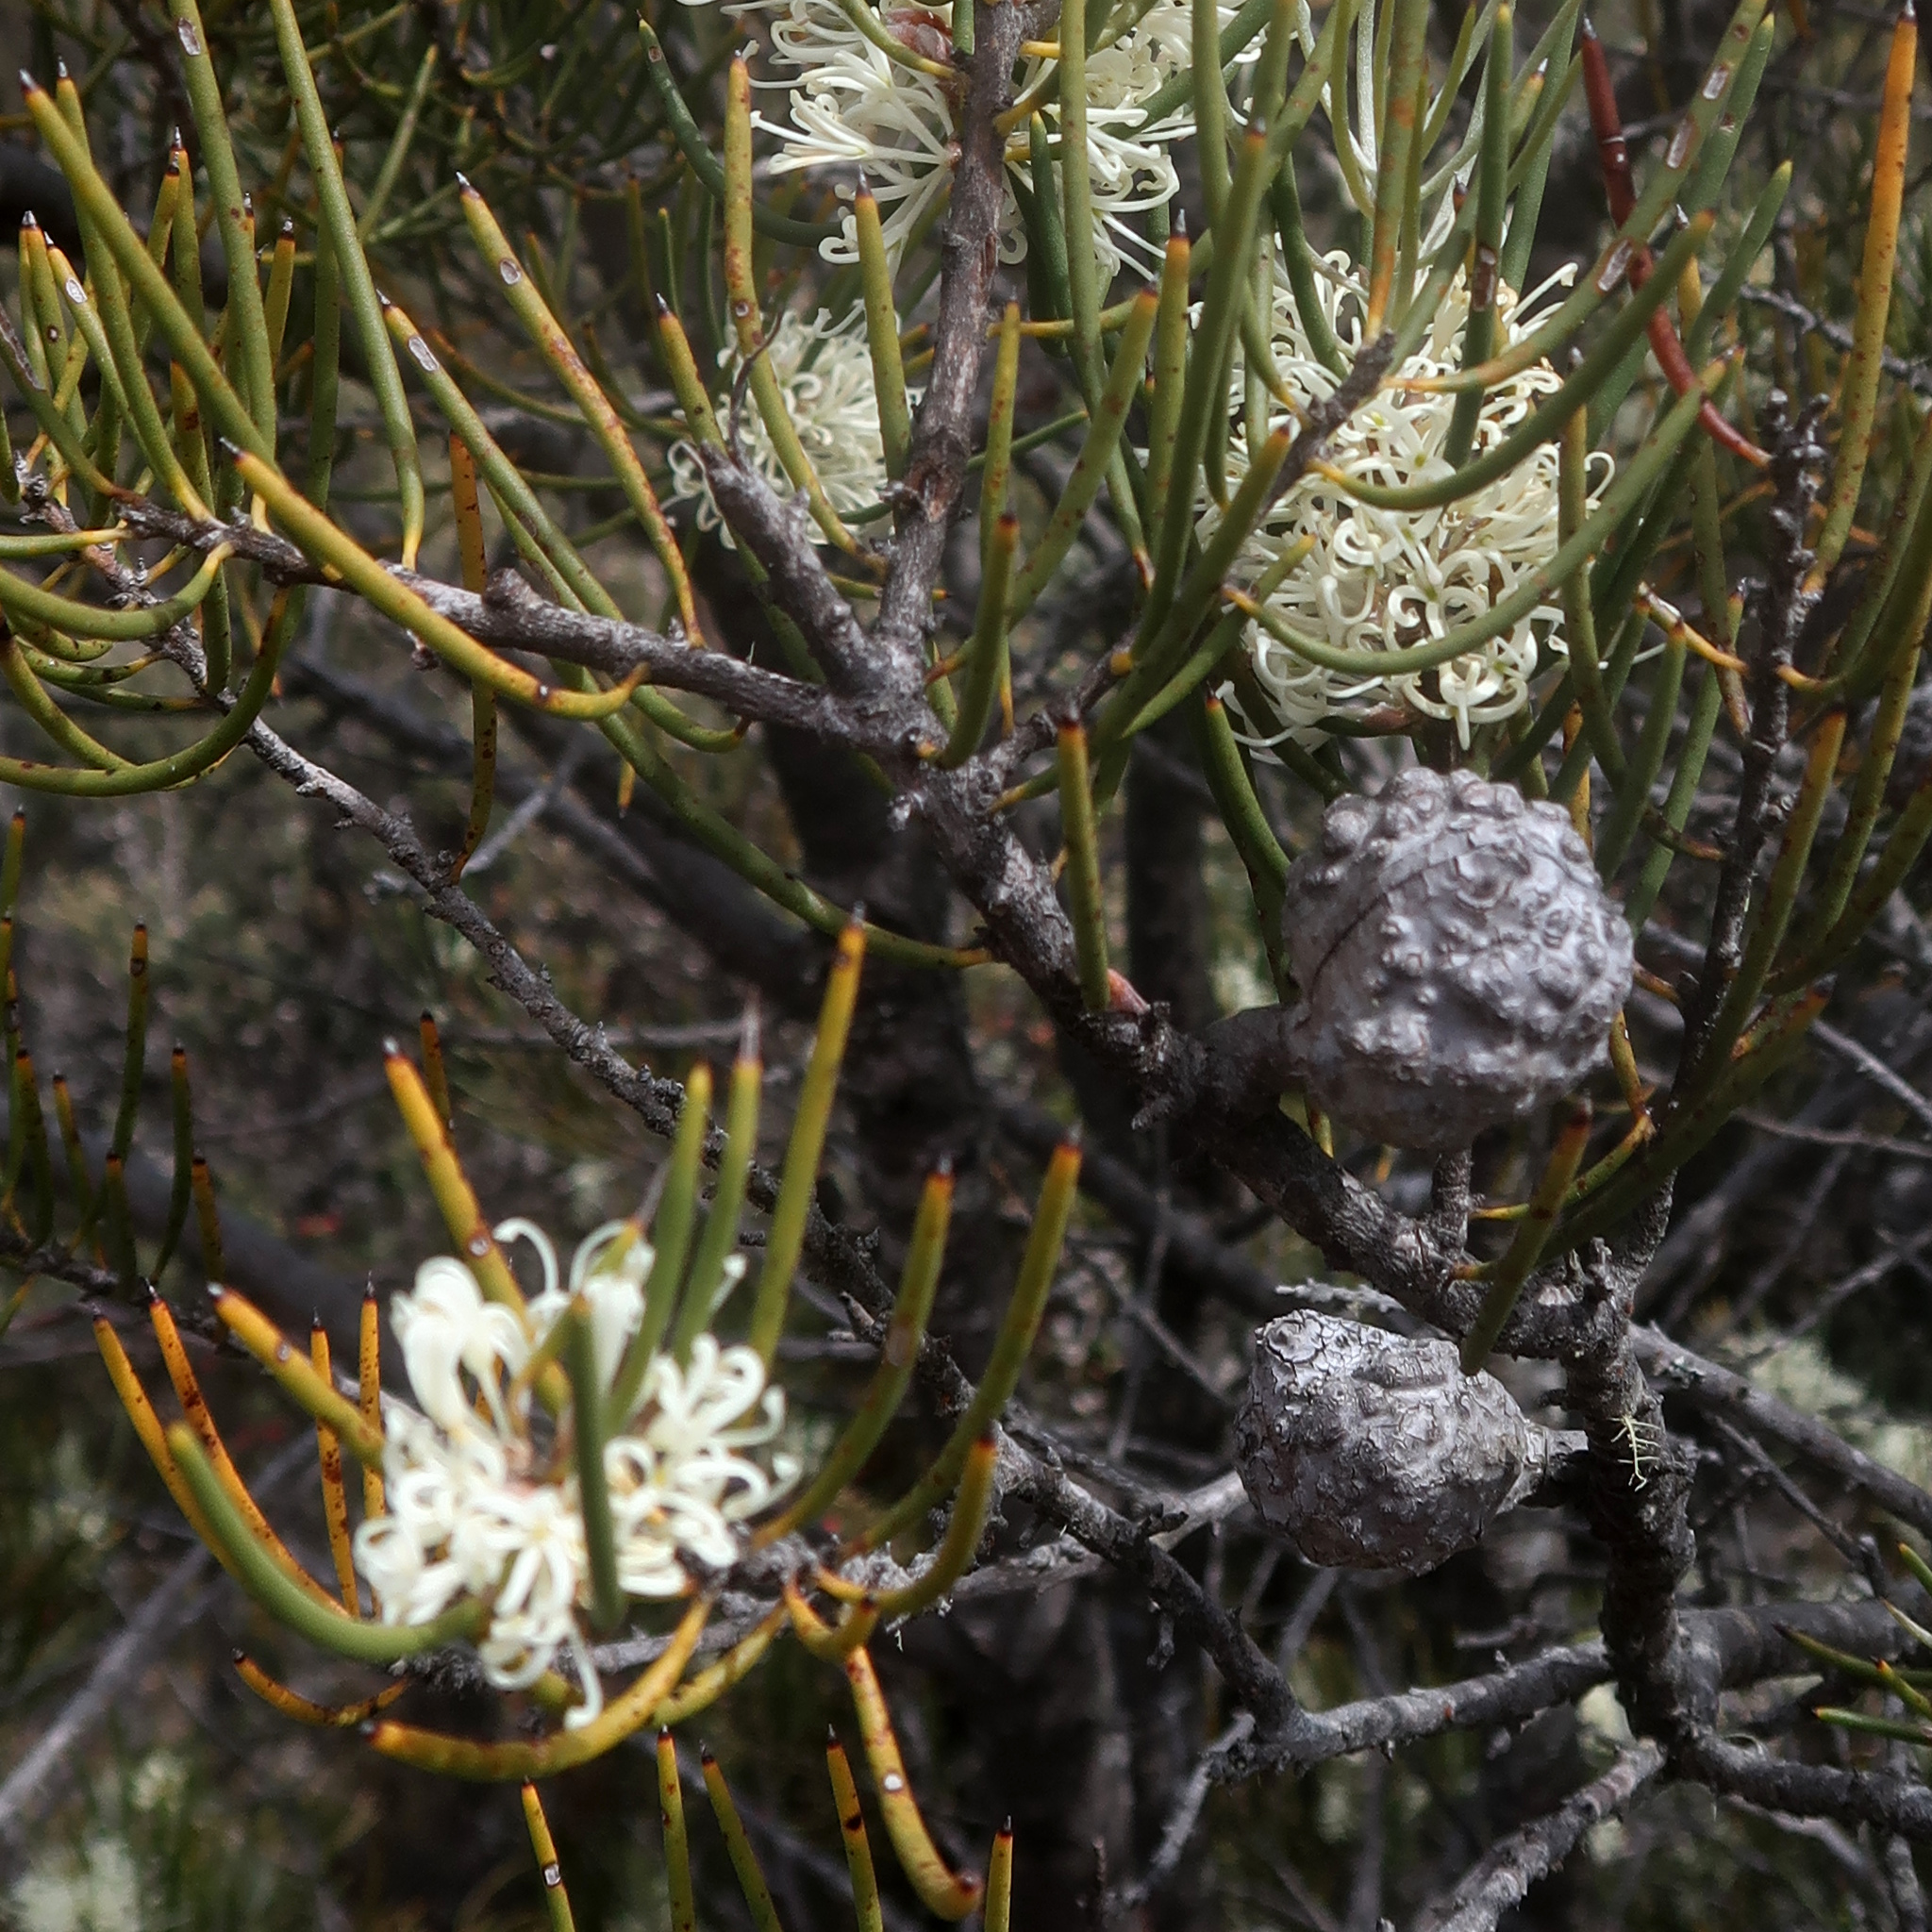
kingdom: Plantae
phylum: Tracheophyta
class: Magnoliopsida
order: Proteales
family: Proteaceae
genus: Hakea
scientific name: Hakea lissosperma
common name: Mountain needlewood
